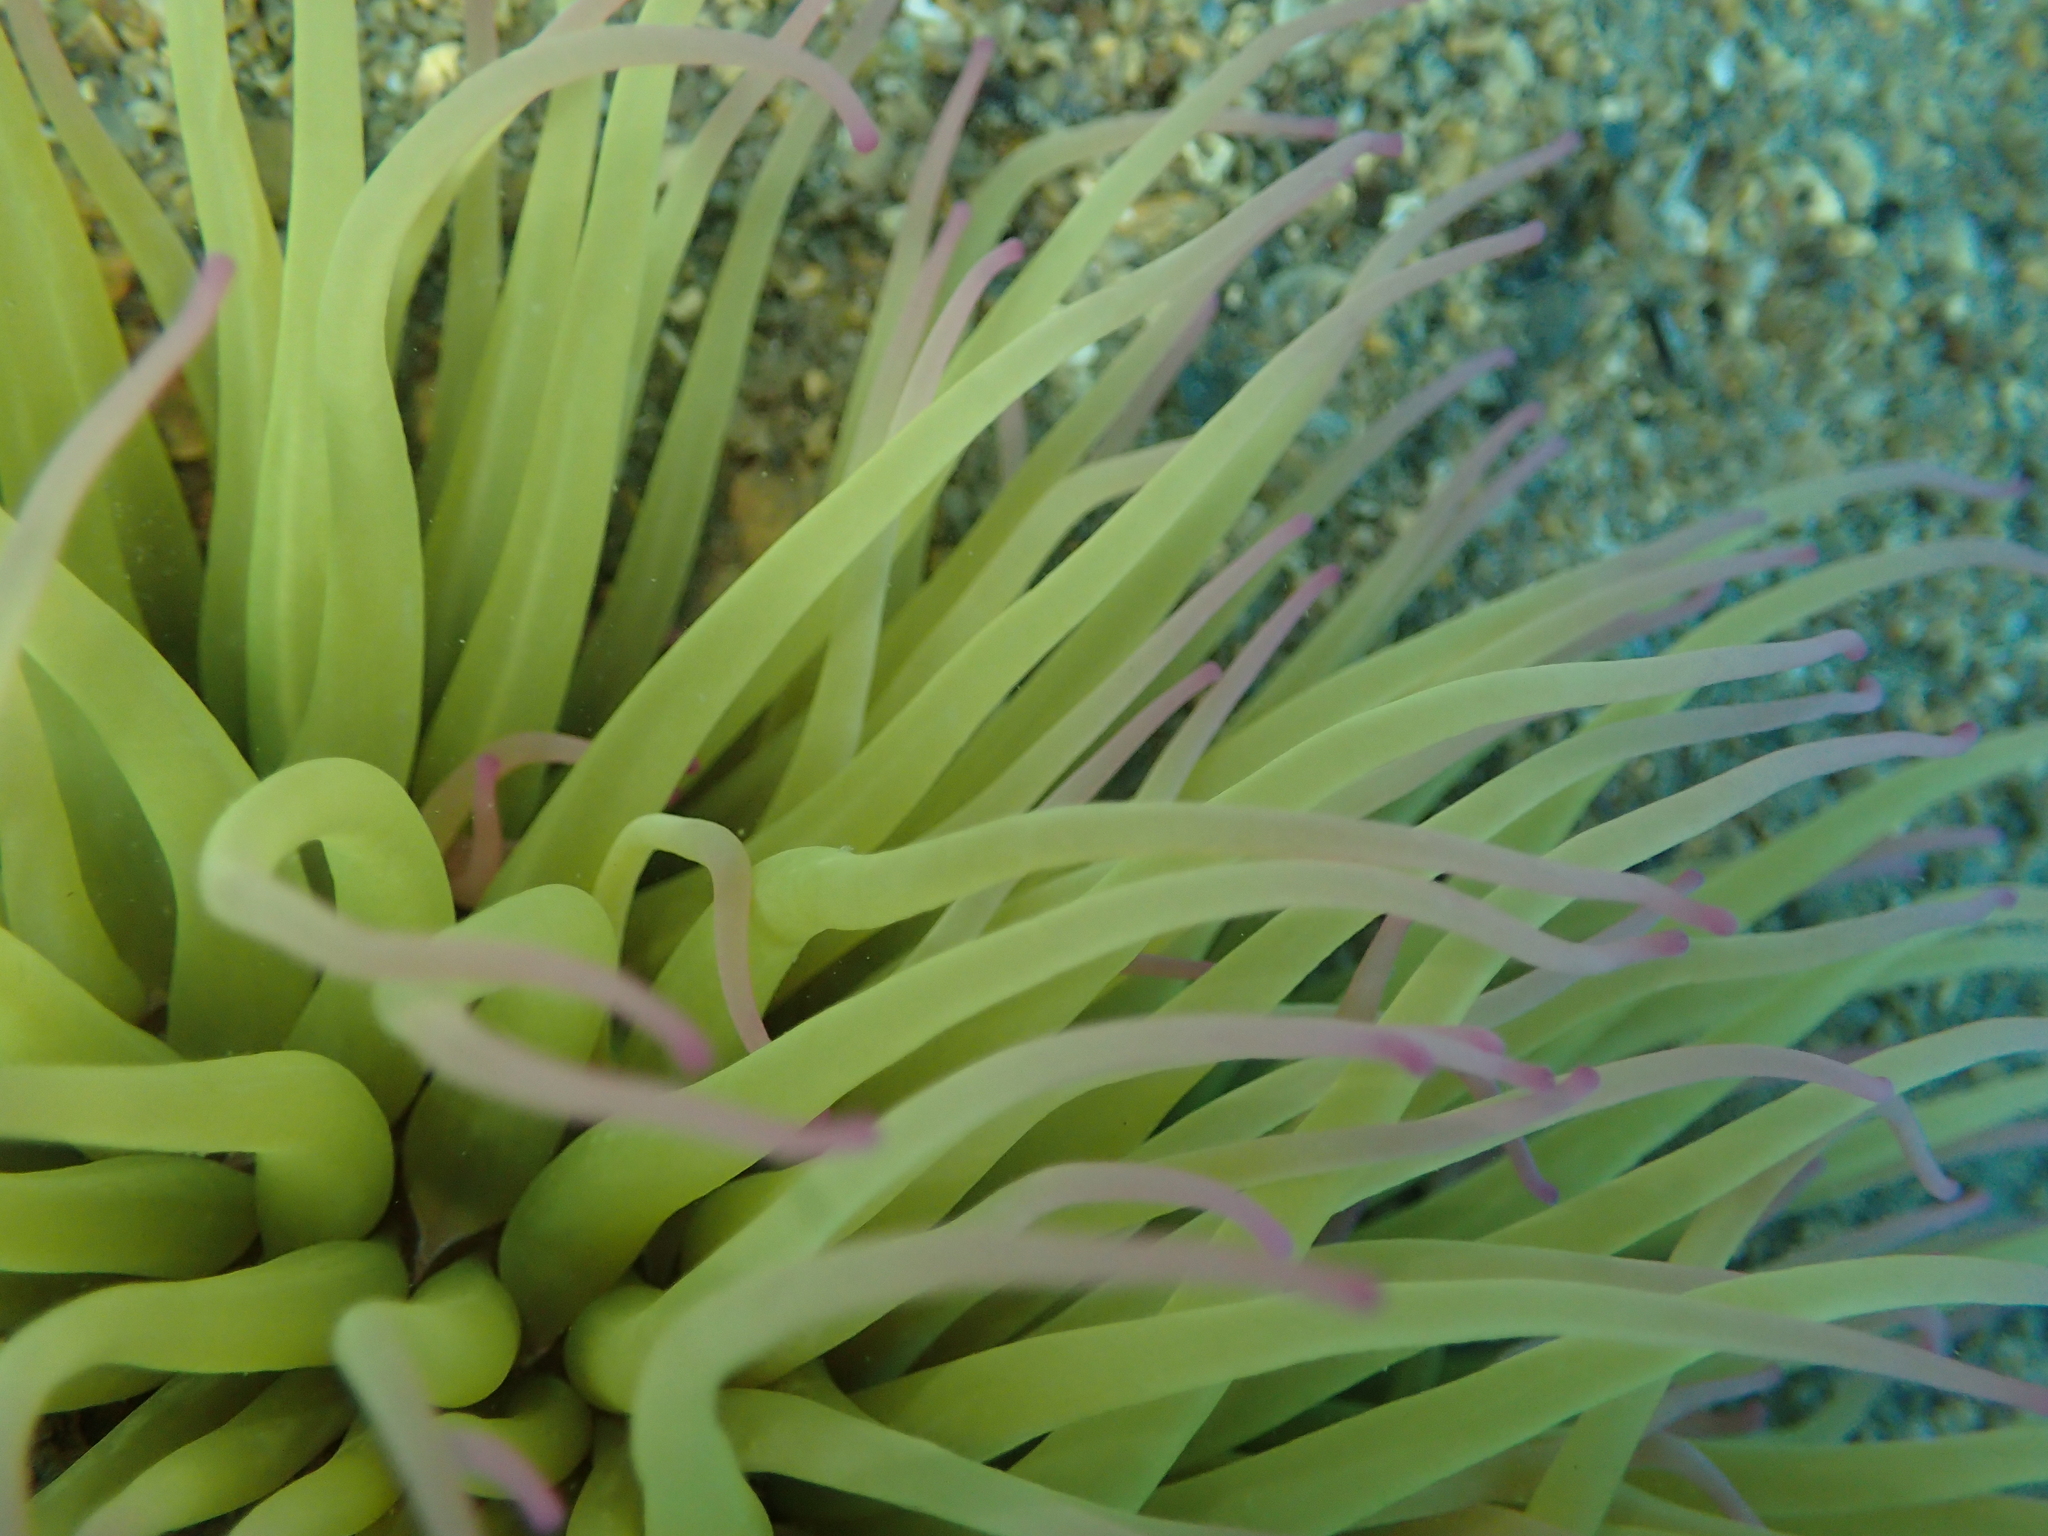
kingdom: Animalia
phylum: Cnidaria
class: Anthozoa
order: Actiniaria
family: Actiniidae
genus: Anemonia
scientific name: Anemonia viridis
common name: Snakelocks anemone
